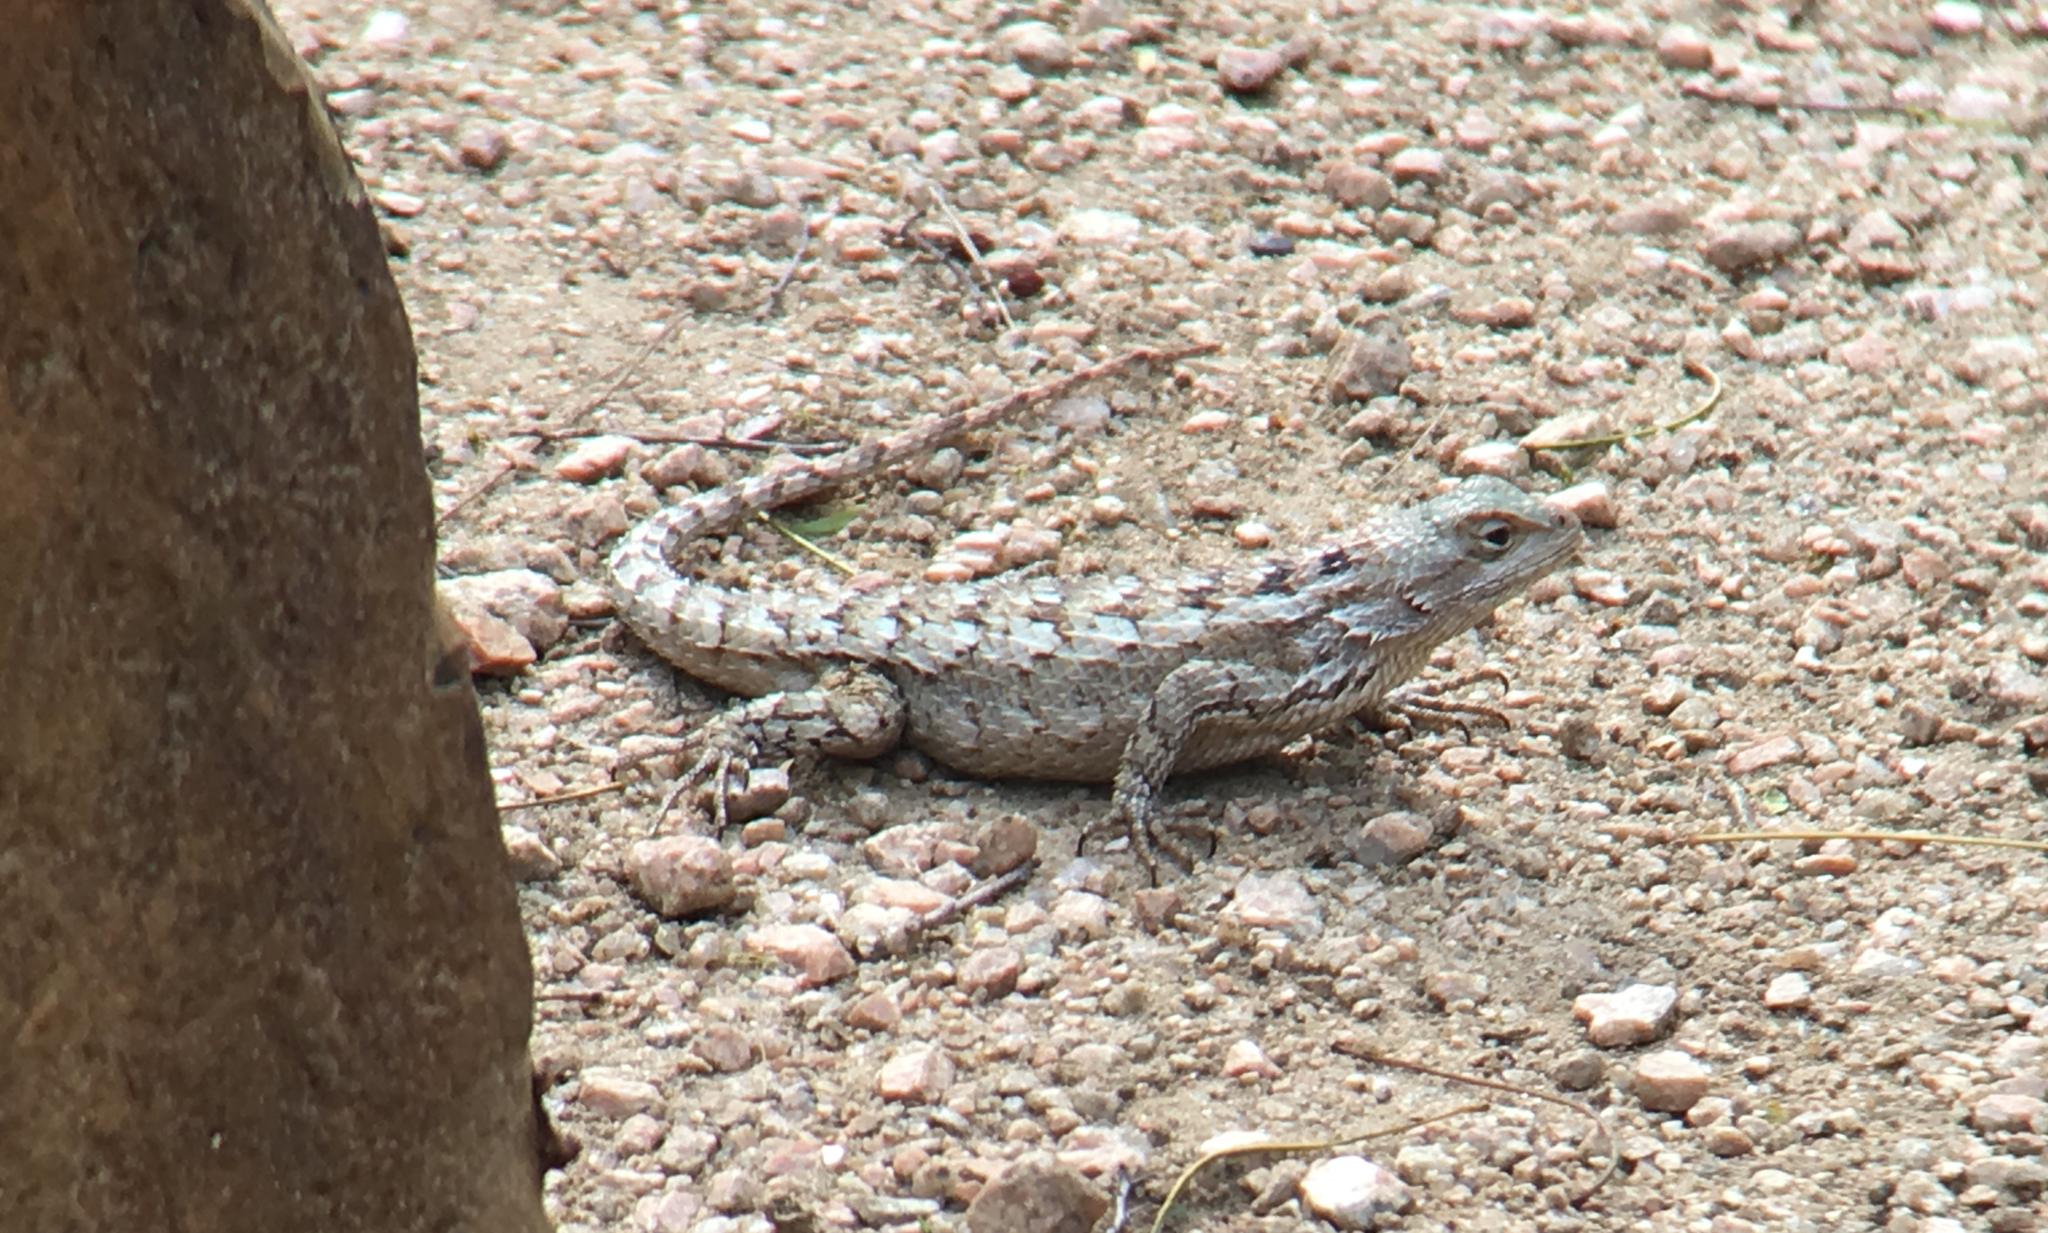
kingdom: Animalia
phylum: Chordata
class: Squamata
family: Phrynosomatidae
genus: Sceloporus
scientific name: Sceloporus olivaceus
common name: Texas spiny lizard
